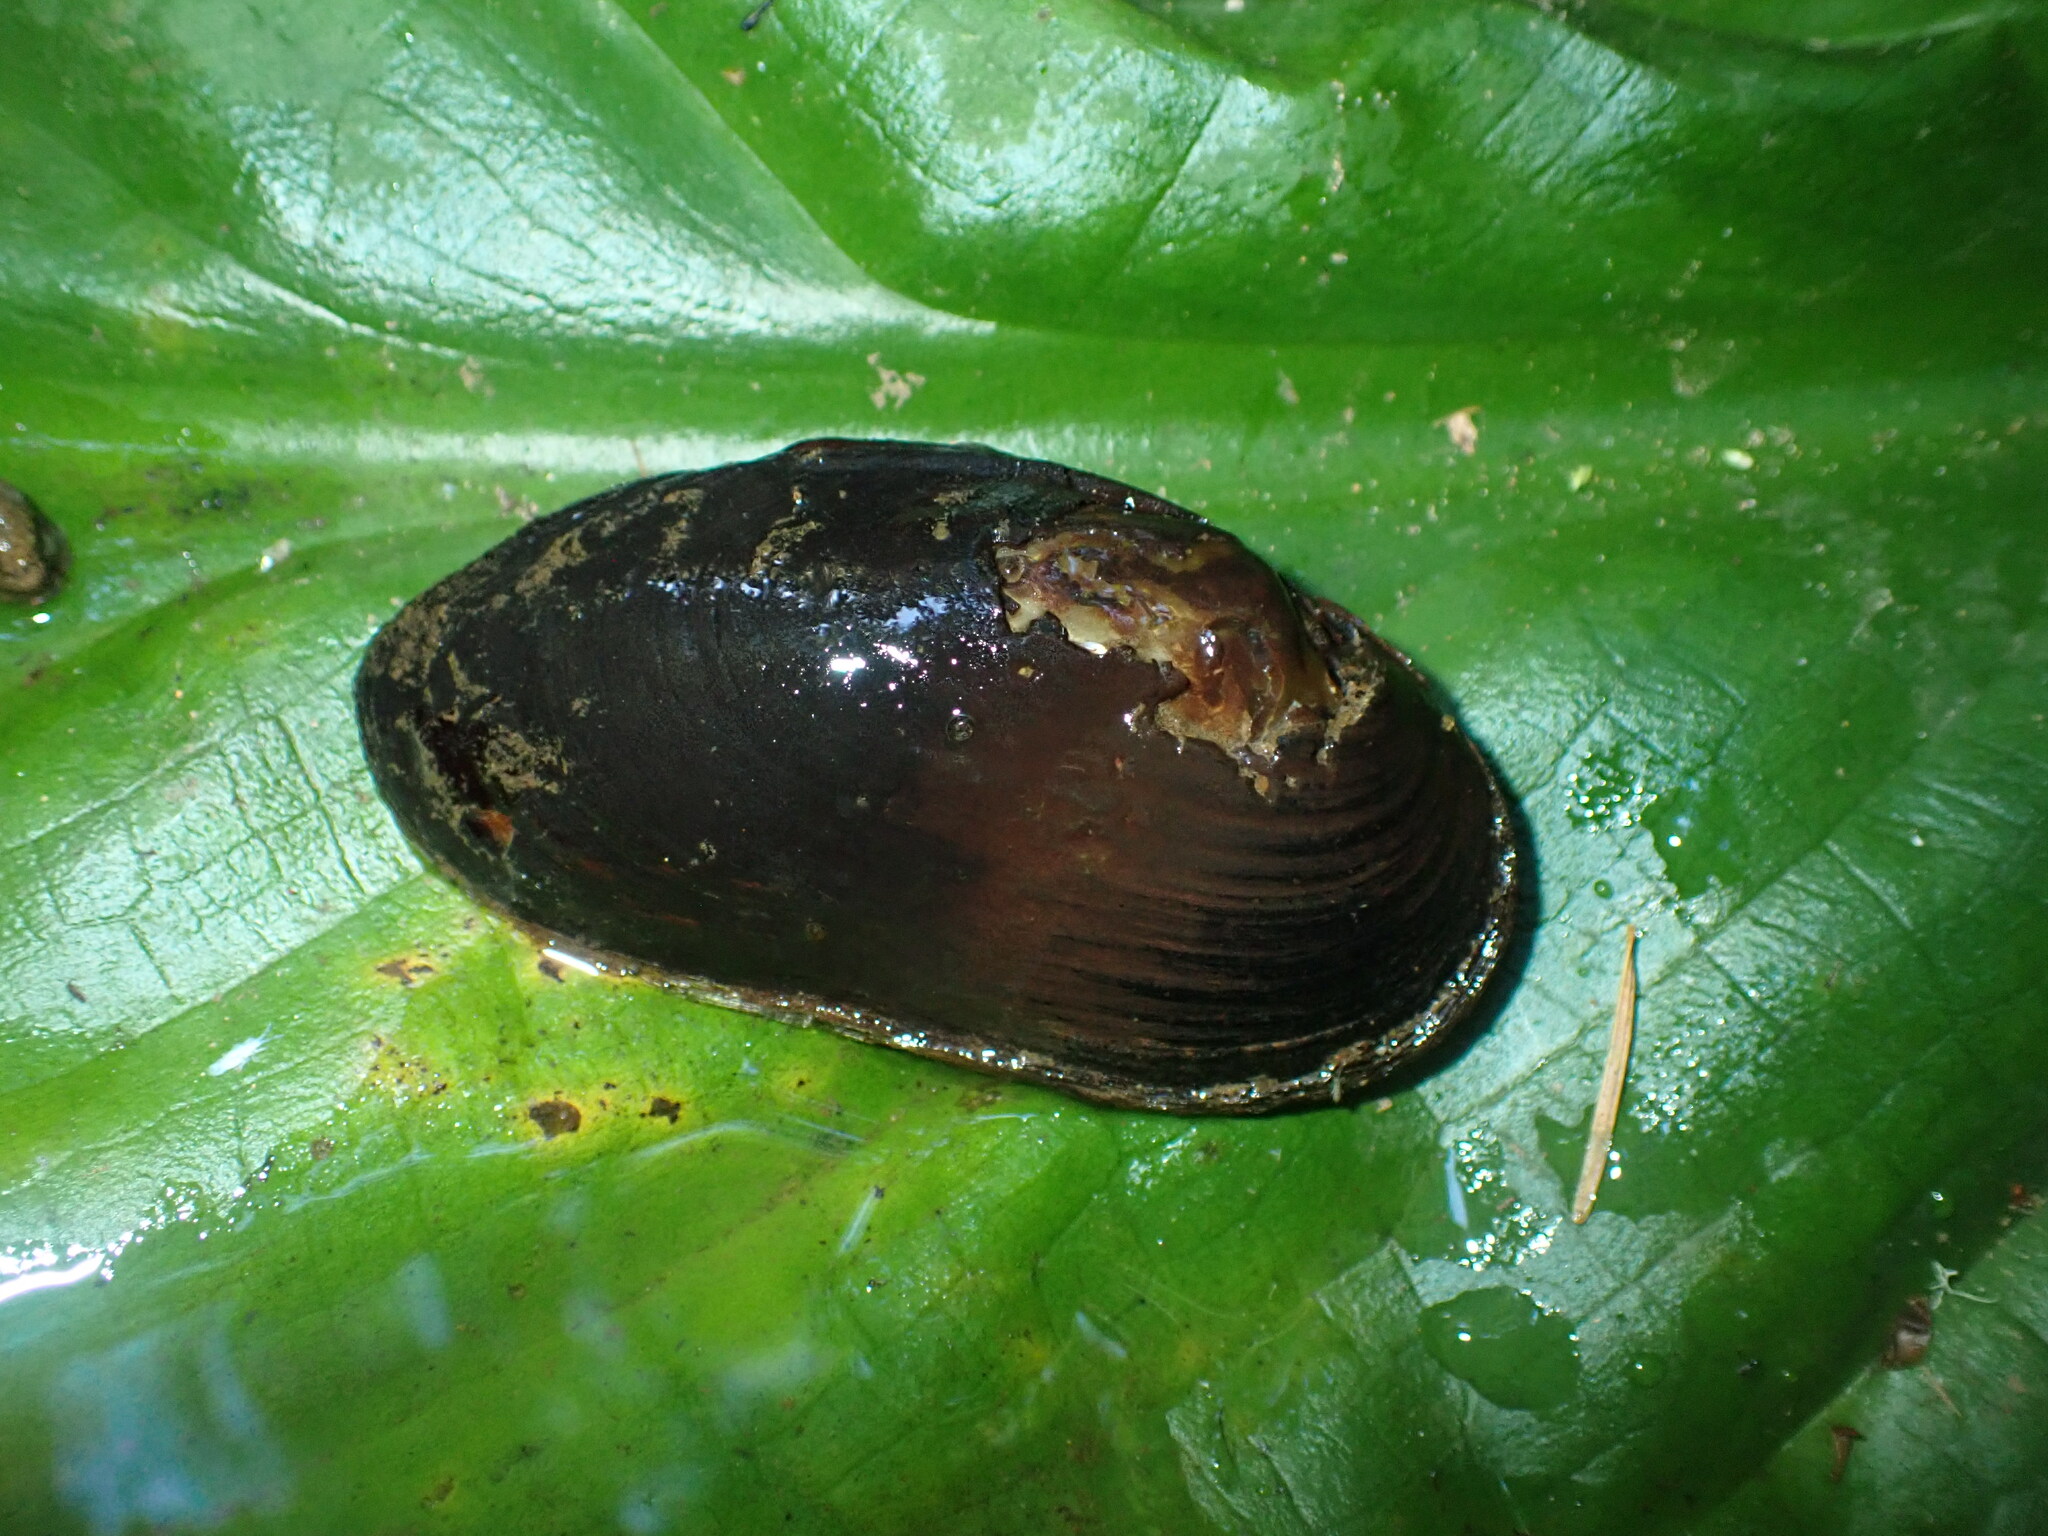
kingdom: Animalia
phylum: Mollusca
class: Bivalvia
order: Unionida
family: Margaritiferidae
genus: Margaritifera
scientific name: Margaritifera falcata
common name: Western pearlshell
